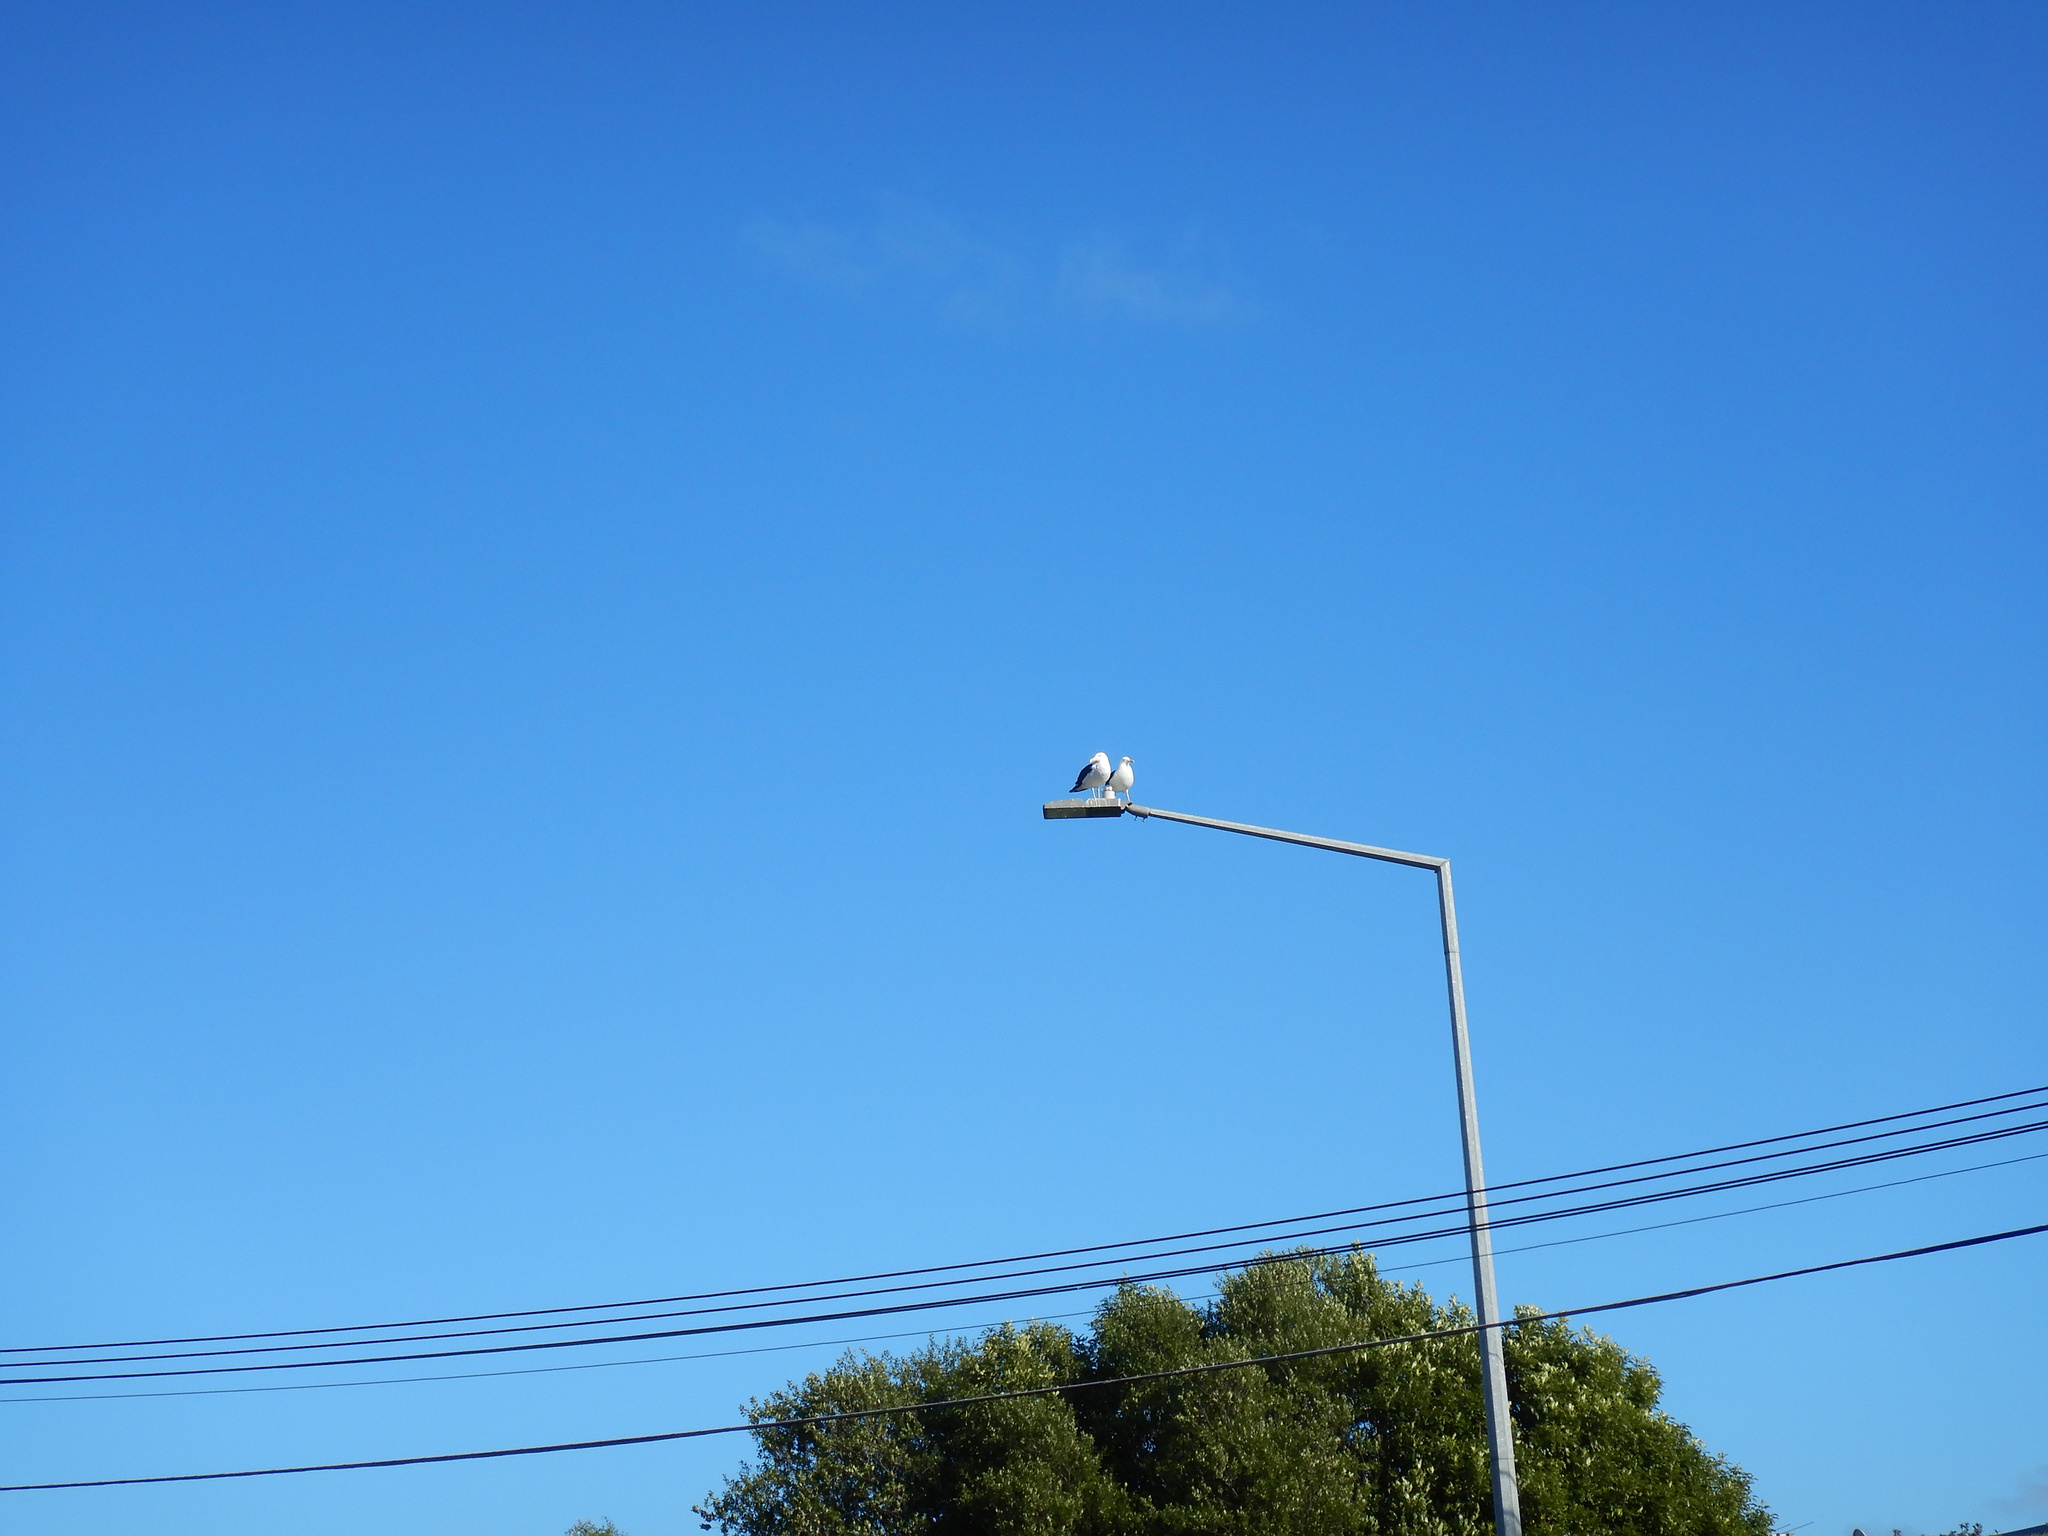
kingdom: Animalia
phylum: Chordata
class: Aves
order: Charadriiformes
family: Laridae
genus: Larus
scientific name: Larus dominicanus
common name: Kelp gull
